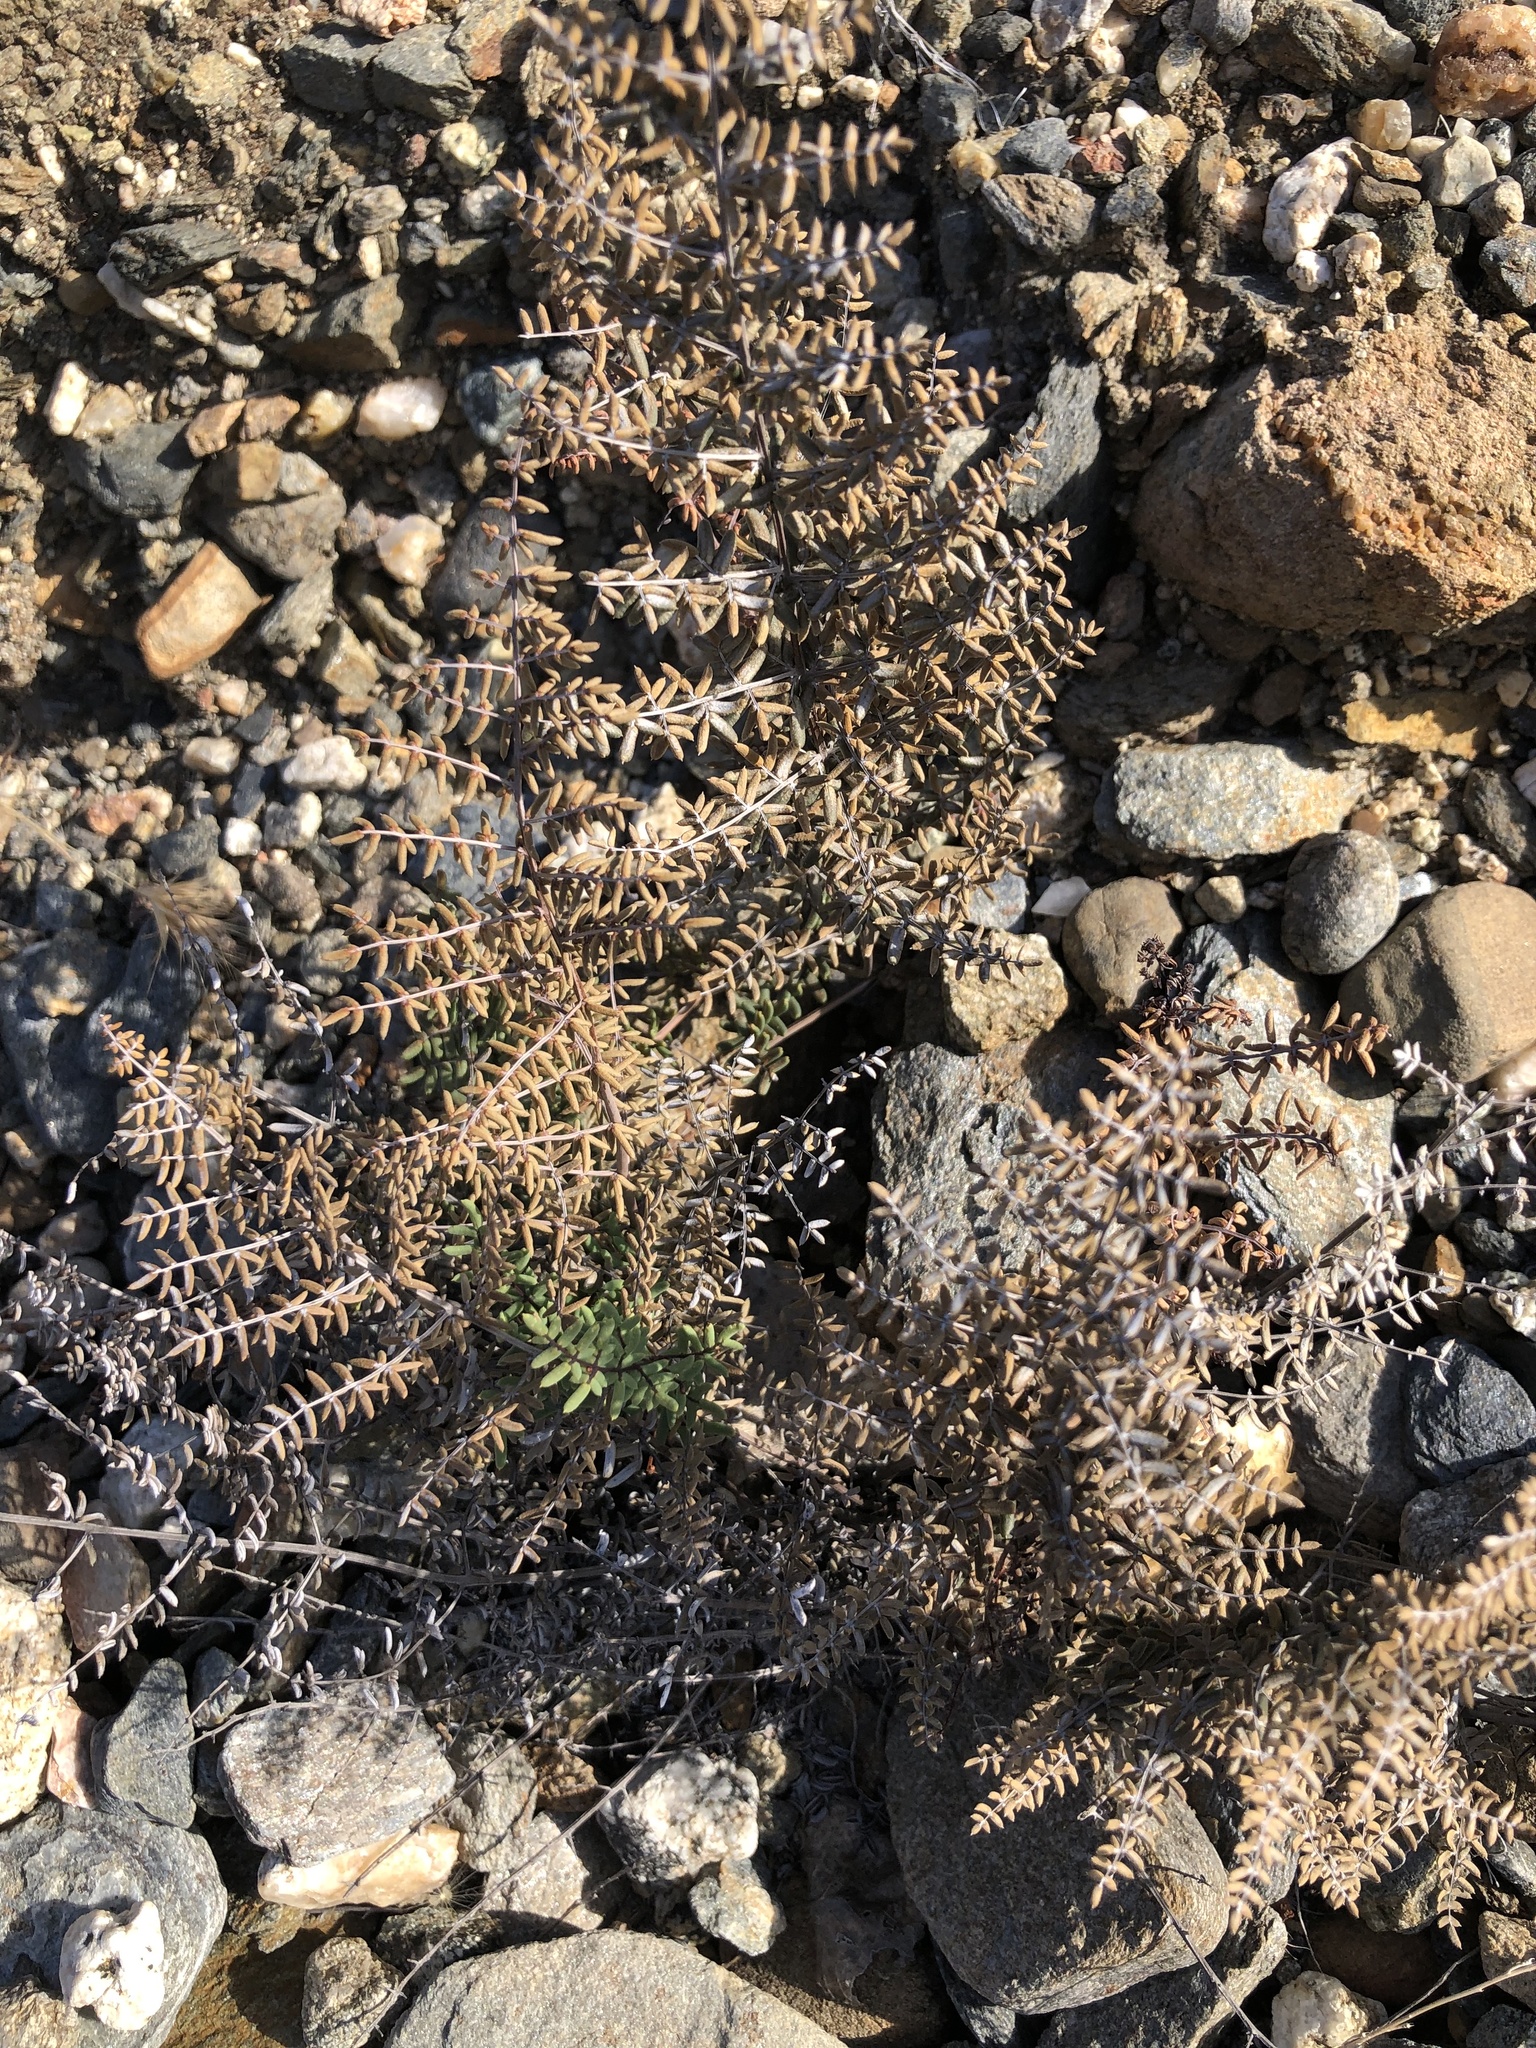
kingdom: Plantae
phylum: Tracheophyta
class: Polypodiopsida
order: Polypodiales
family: Pteridaceae
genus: Pellaea
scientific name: Pellaea mucronata
